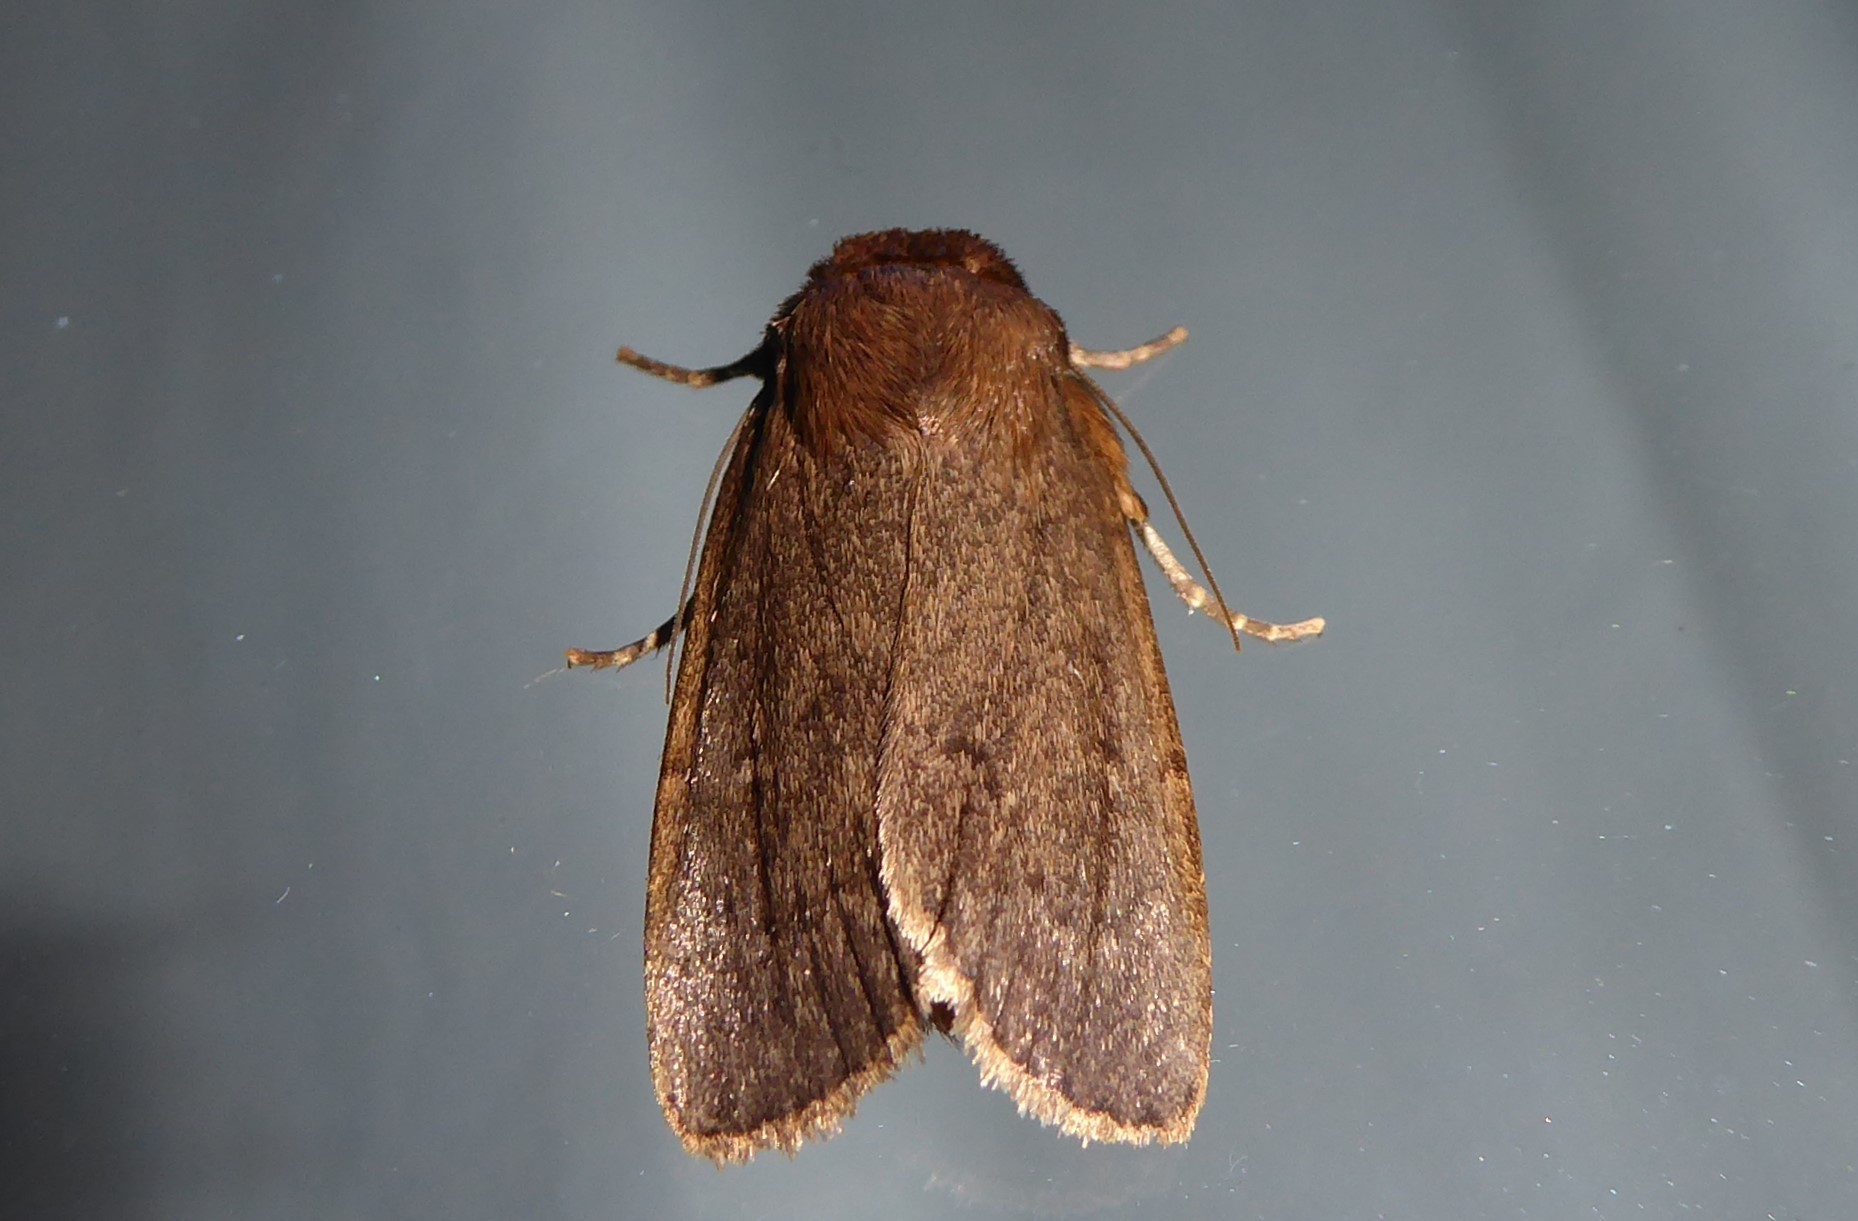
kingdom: Animalia
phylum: Arthropoda
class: Insecta
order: Lepidoptera
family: Noctuidae
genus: Bityla
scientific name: Bityla defigurata
